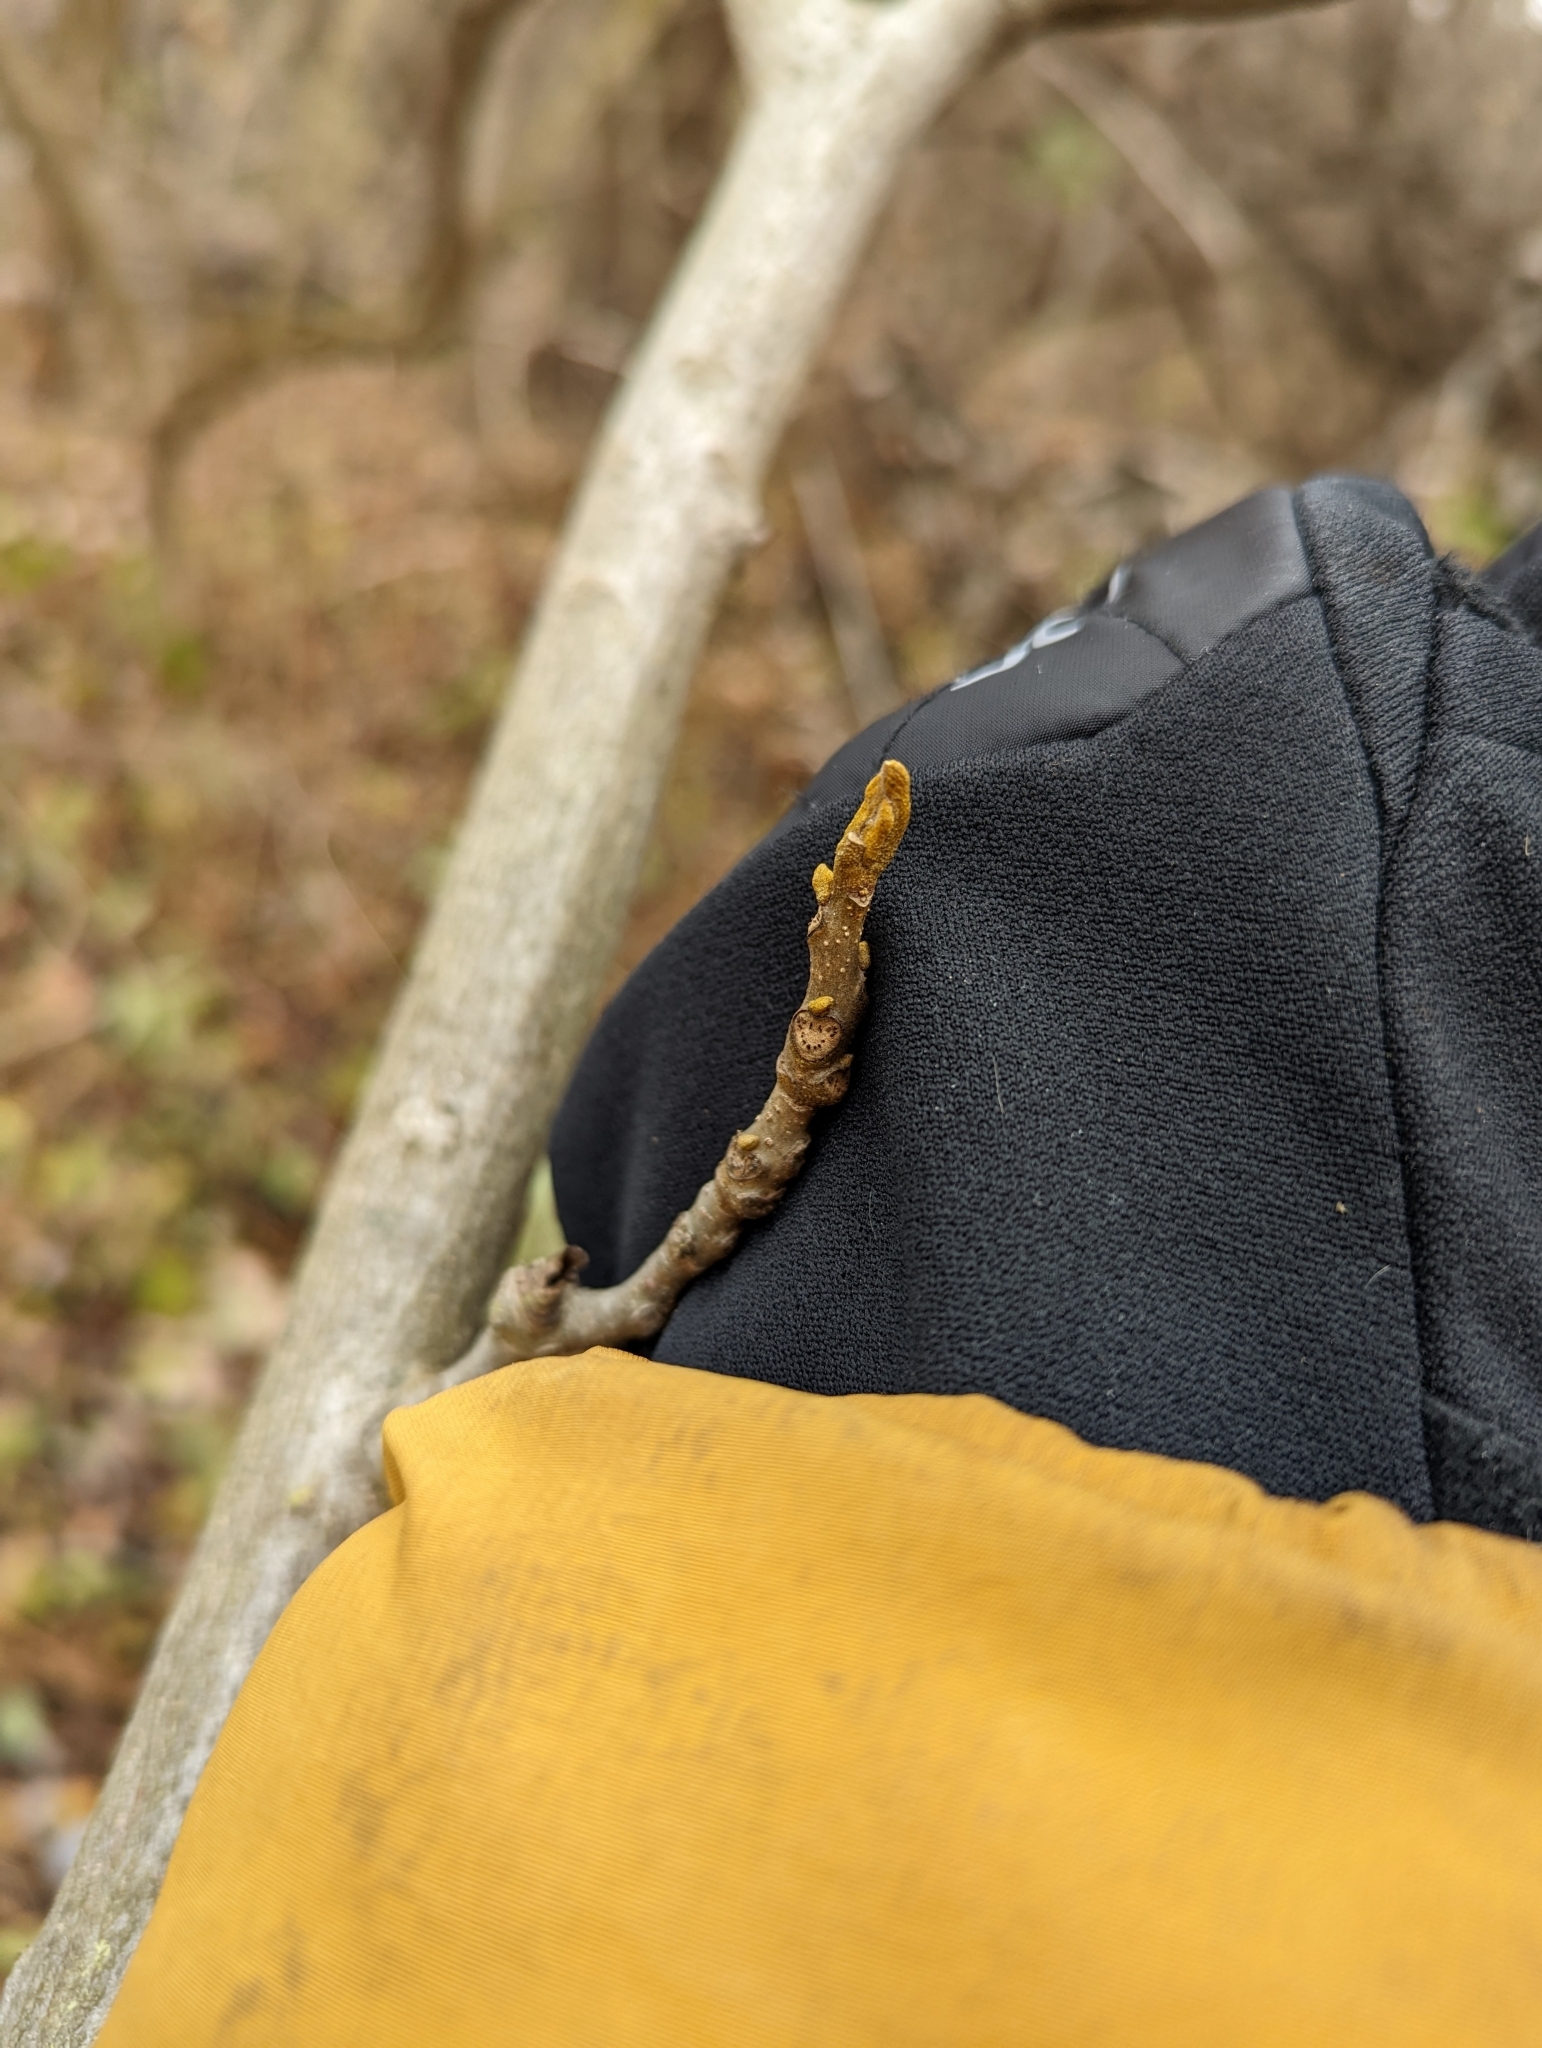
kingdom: Plantae
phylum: Tracheophyta
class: Magnoliopsida
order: Fagales
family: Juglandaceae
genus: Carya
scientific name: Carya cordiformis
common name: Bitternut hickory
